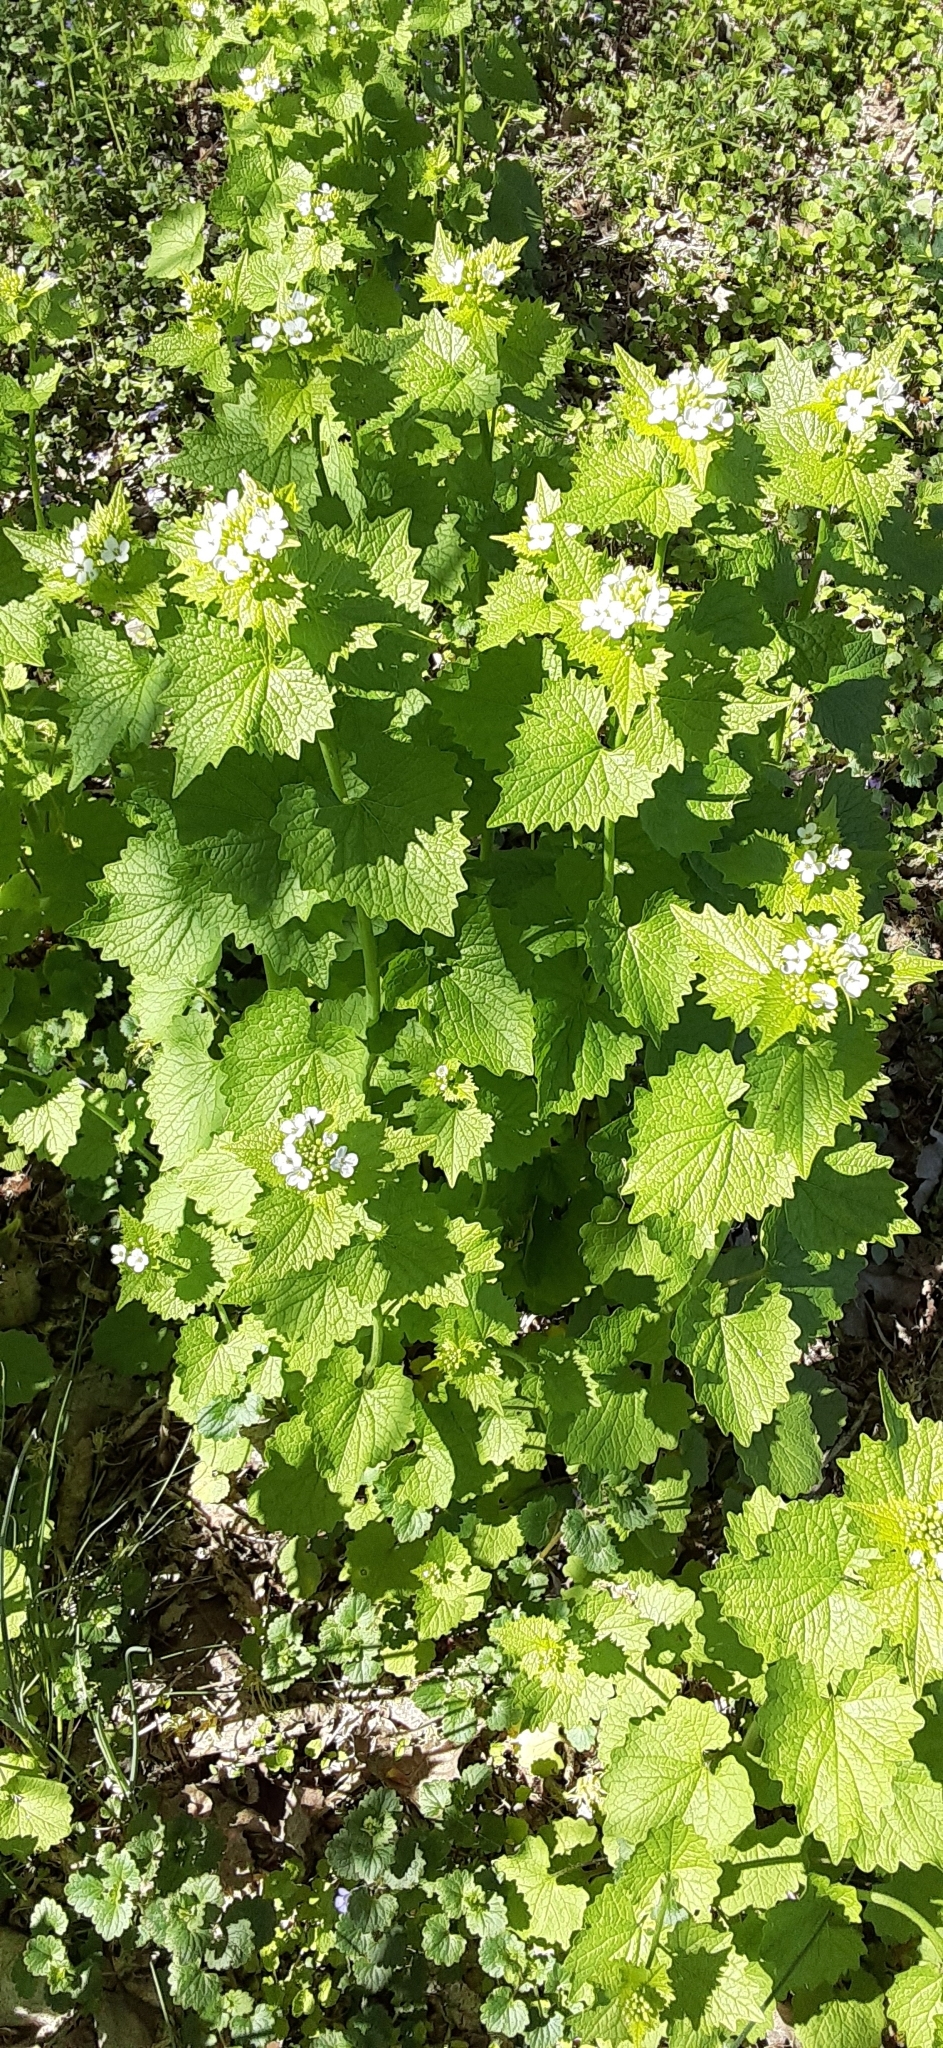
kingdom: Plantae
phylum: Tracheophyta
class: Magnoliopsida
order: Brassicales
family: Brassicaceae
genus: Alliaria
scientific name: Alliaria petiolata
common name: Garlic mustard
